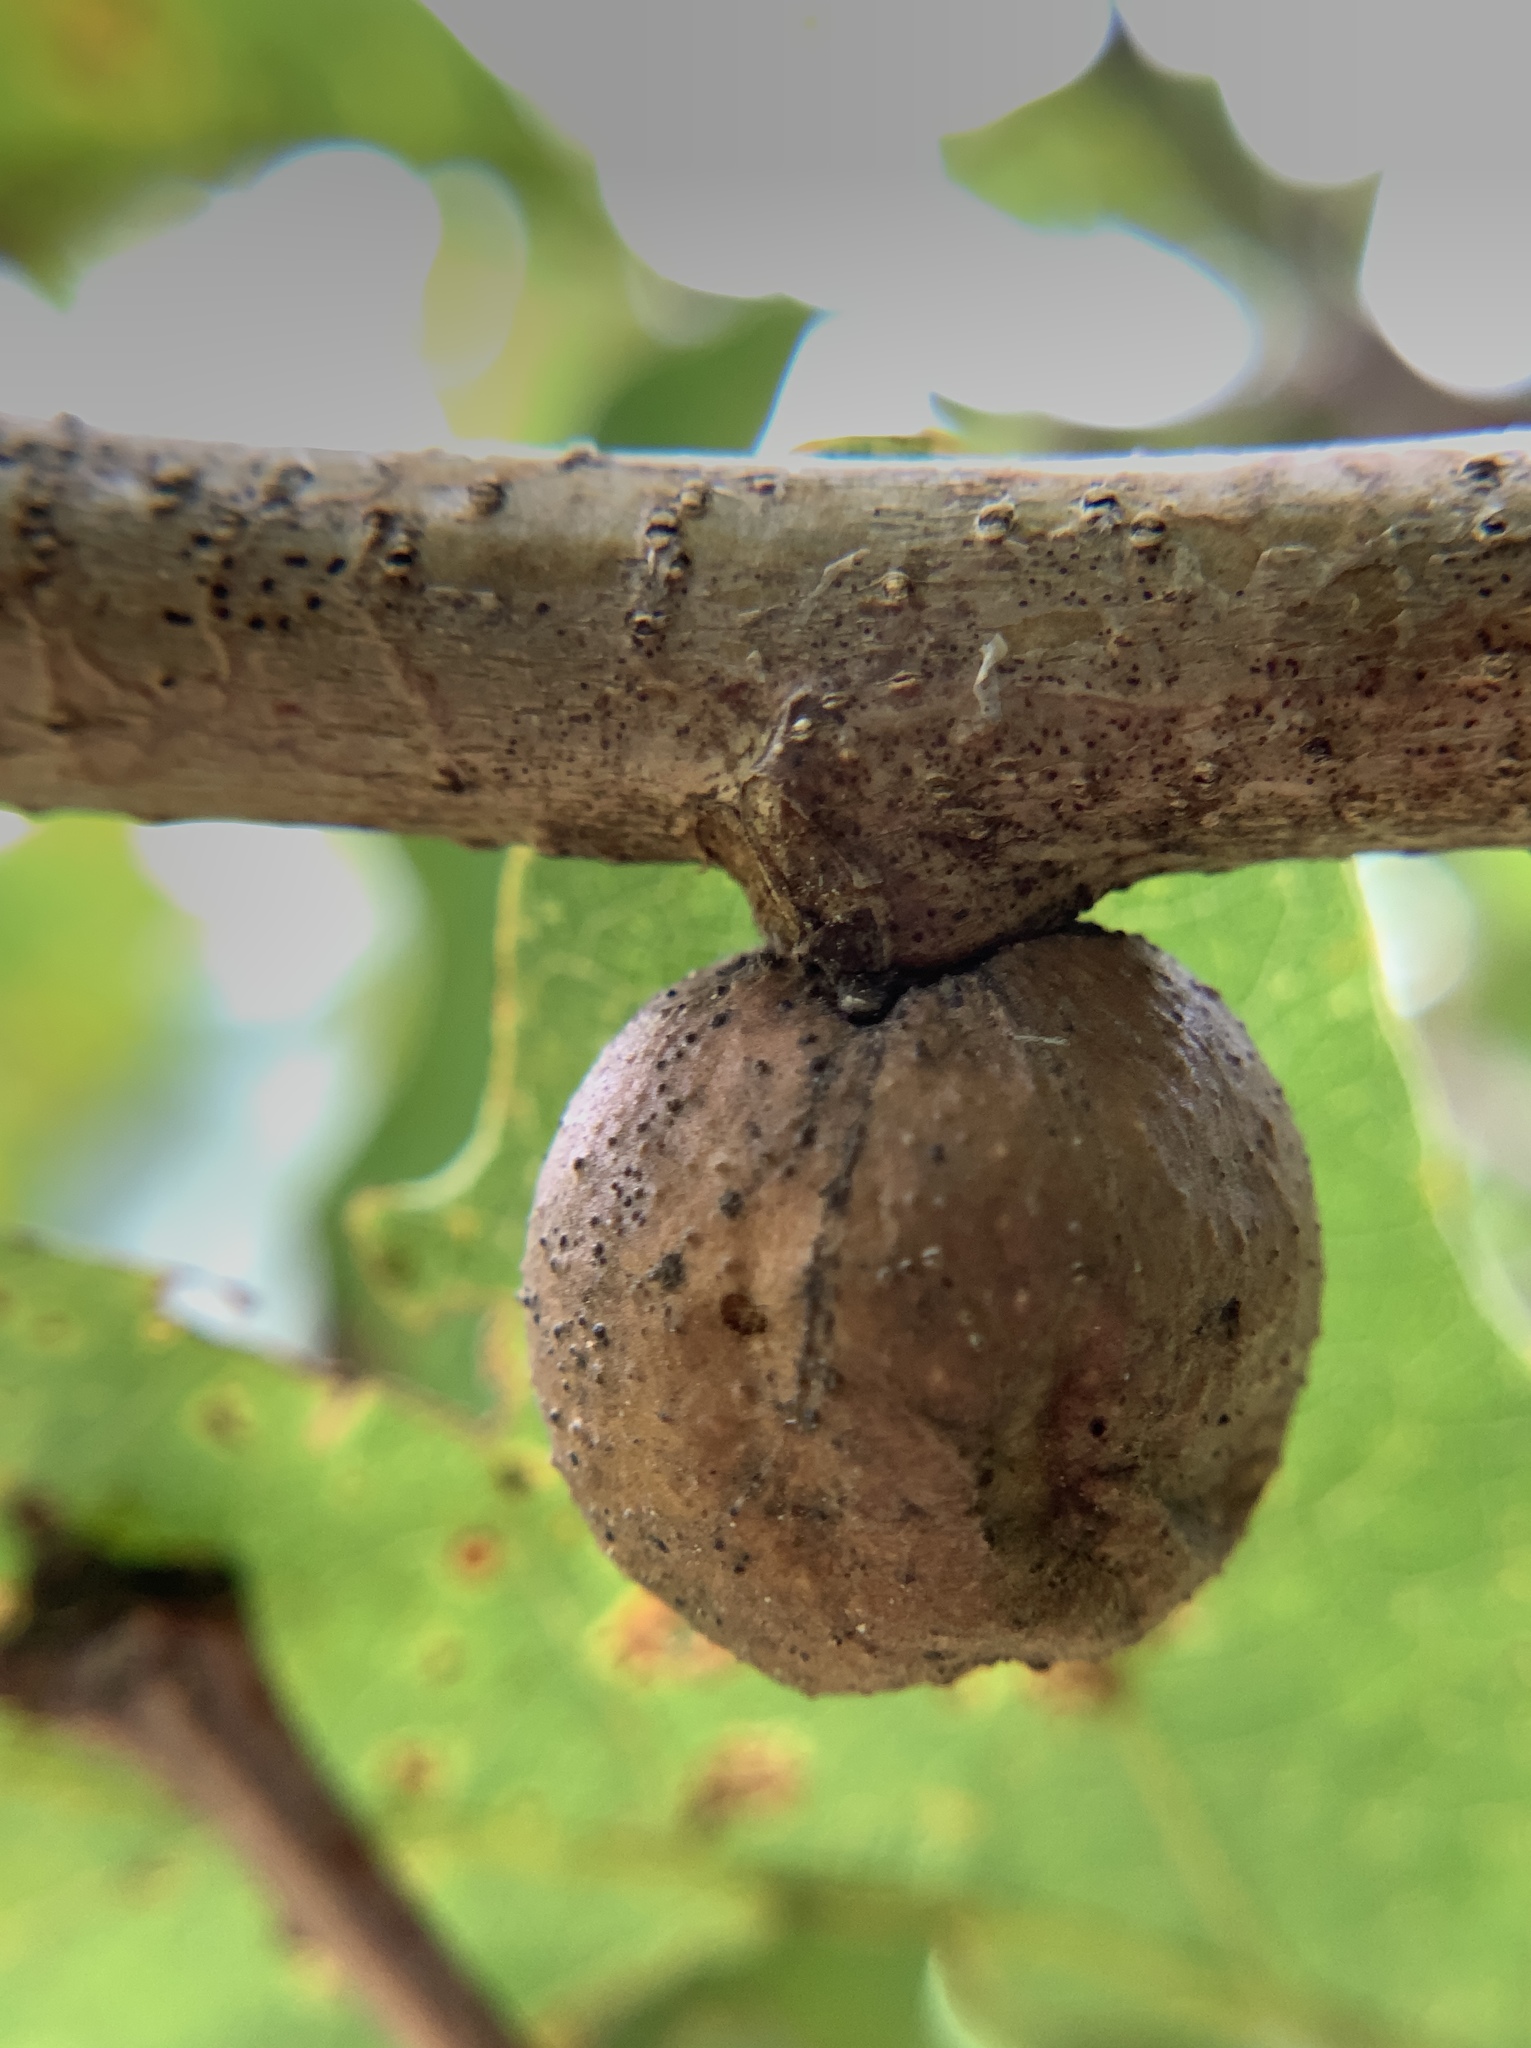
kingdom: Animalia
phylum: Arthropoda
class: Insecta
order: Hymenoptera
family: Cynipidae
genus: Disholcaspis
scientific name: Disholcaspis quercusglobulus
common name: Round bullet gall wasp
